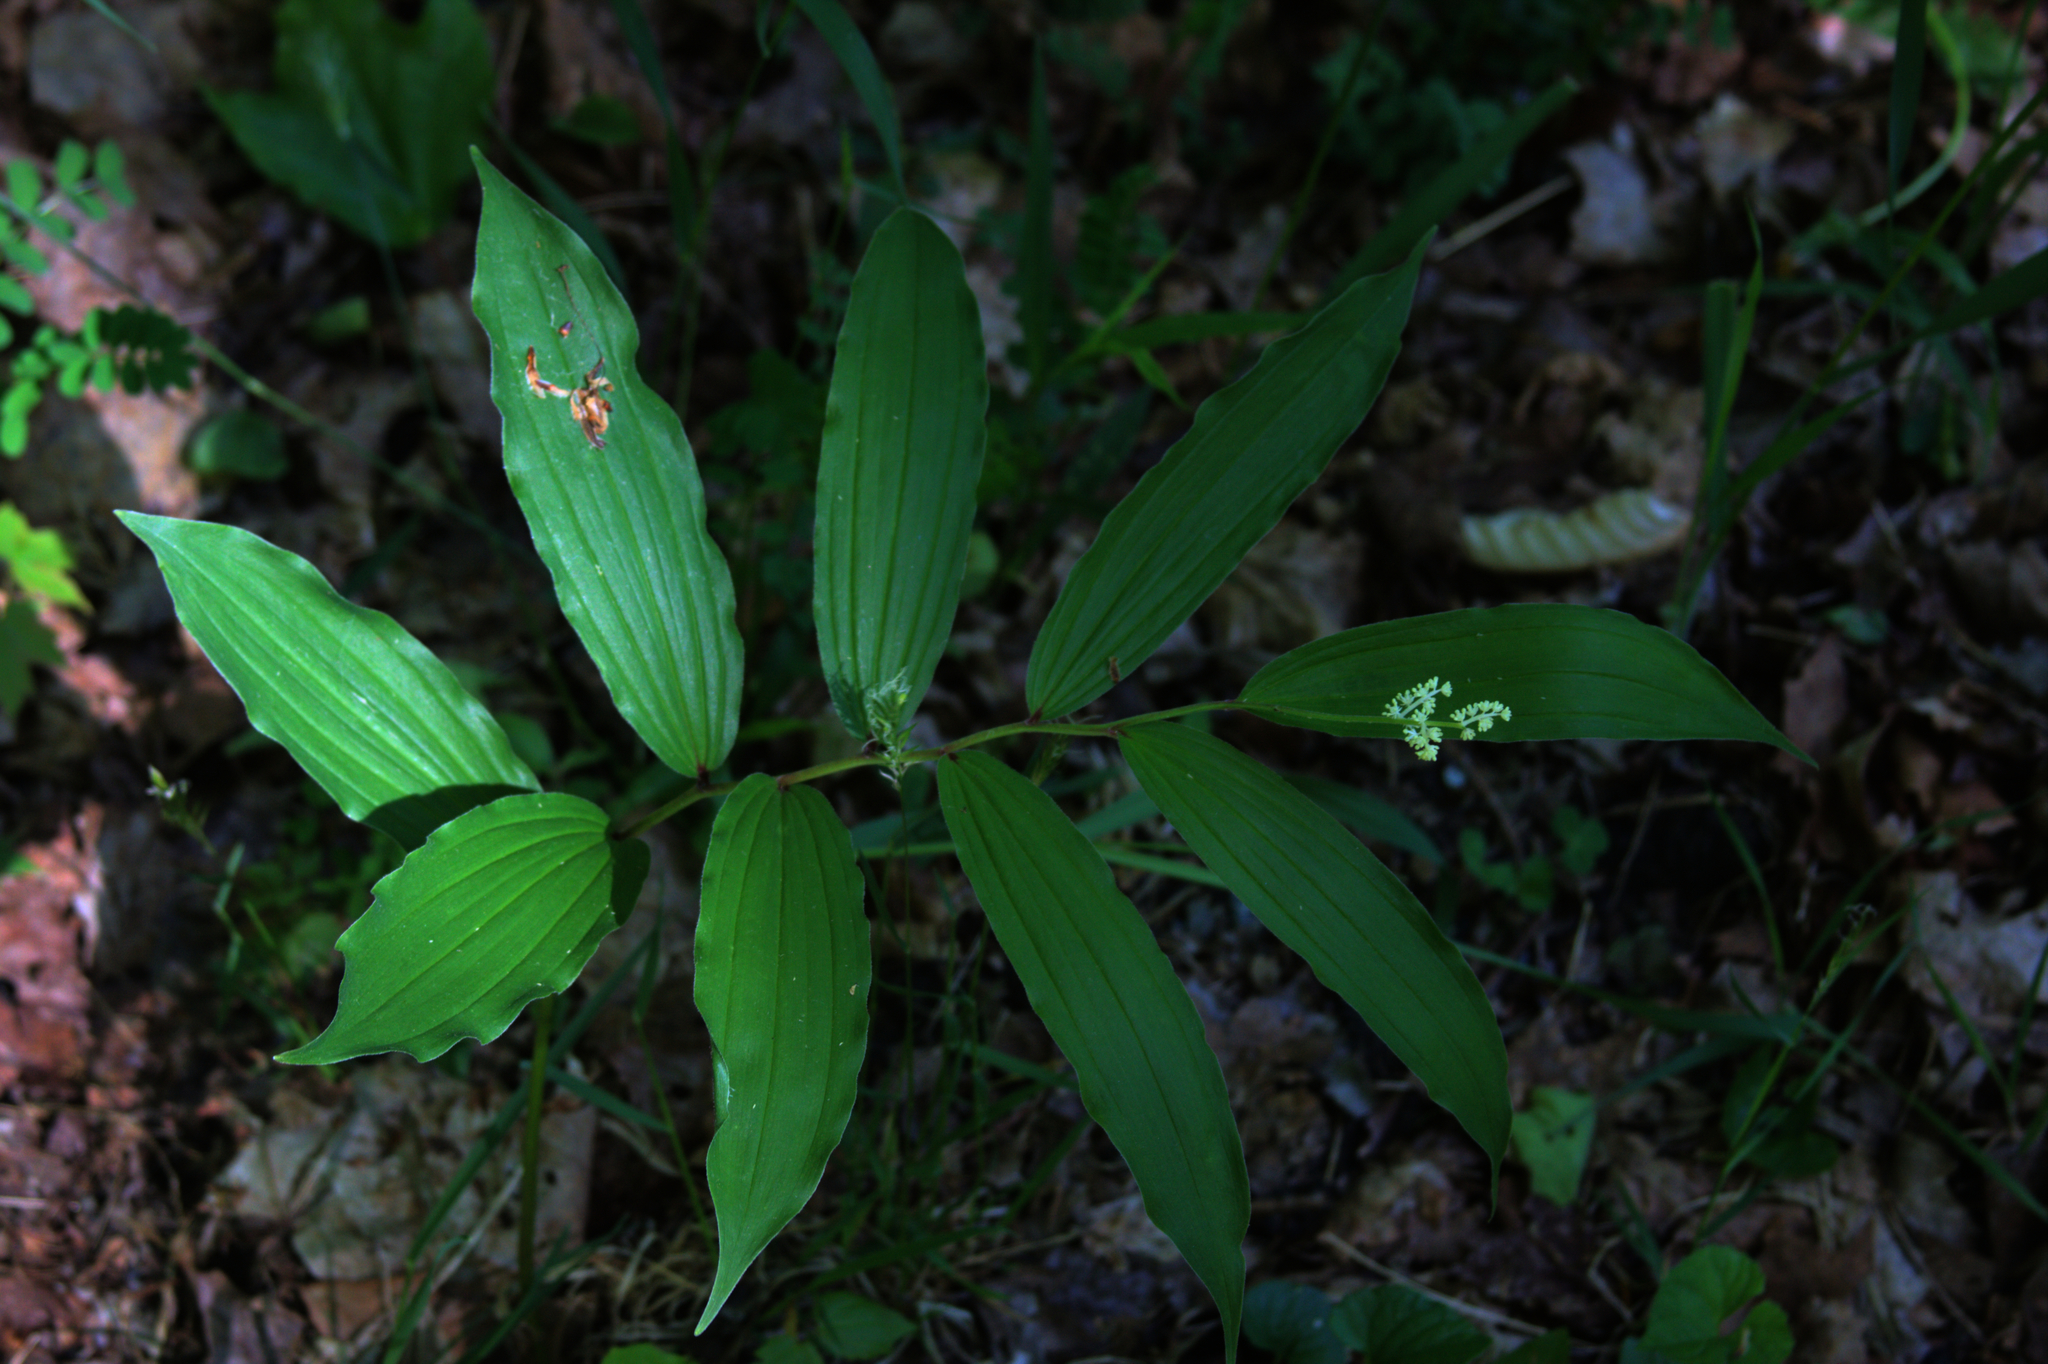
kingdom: Plantae
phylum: Tracheophyta
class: Liliopsida
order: Asparagales
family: Asparagaceae
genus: Maianthemum
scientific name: Maianthemum racemosum
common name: False spikenard
